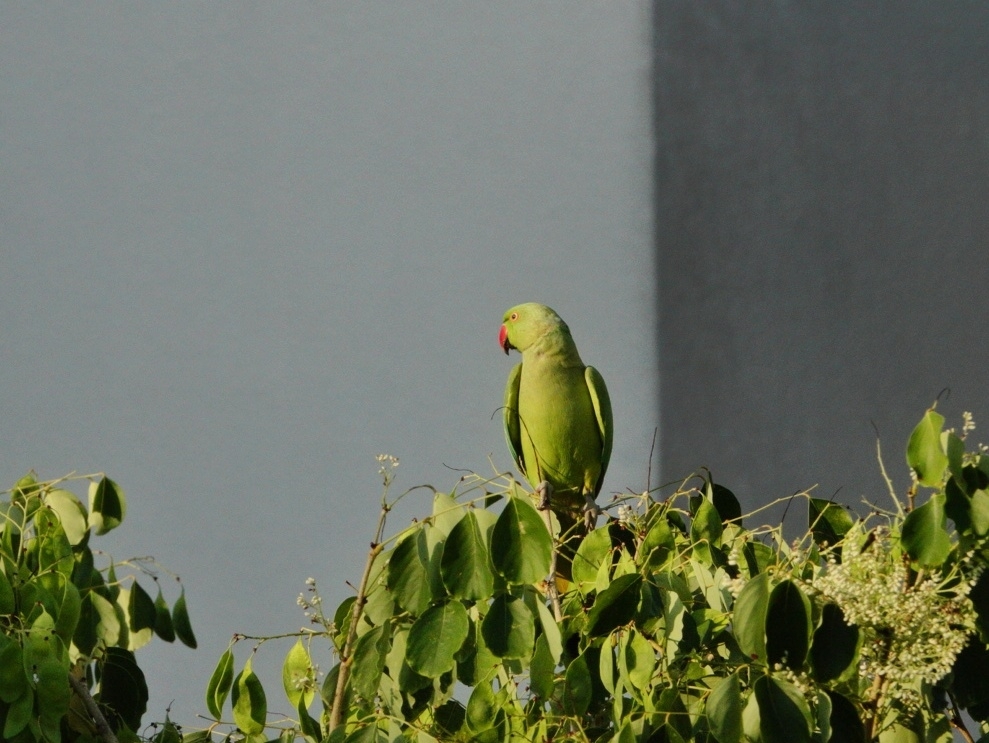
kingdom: Animalia
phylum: Chordata
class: Aves
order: Psittaciformes
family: Psittacidae
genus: Psittacula
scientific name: Psittacula krameri
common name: Rose-ringed parakeet
